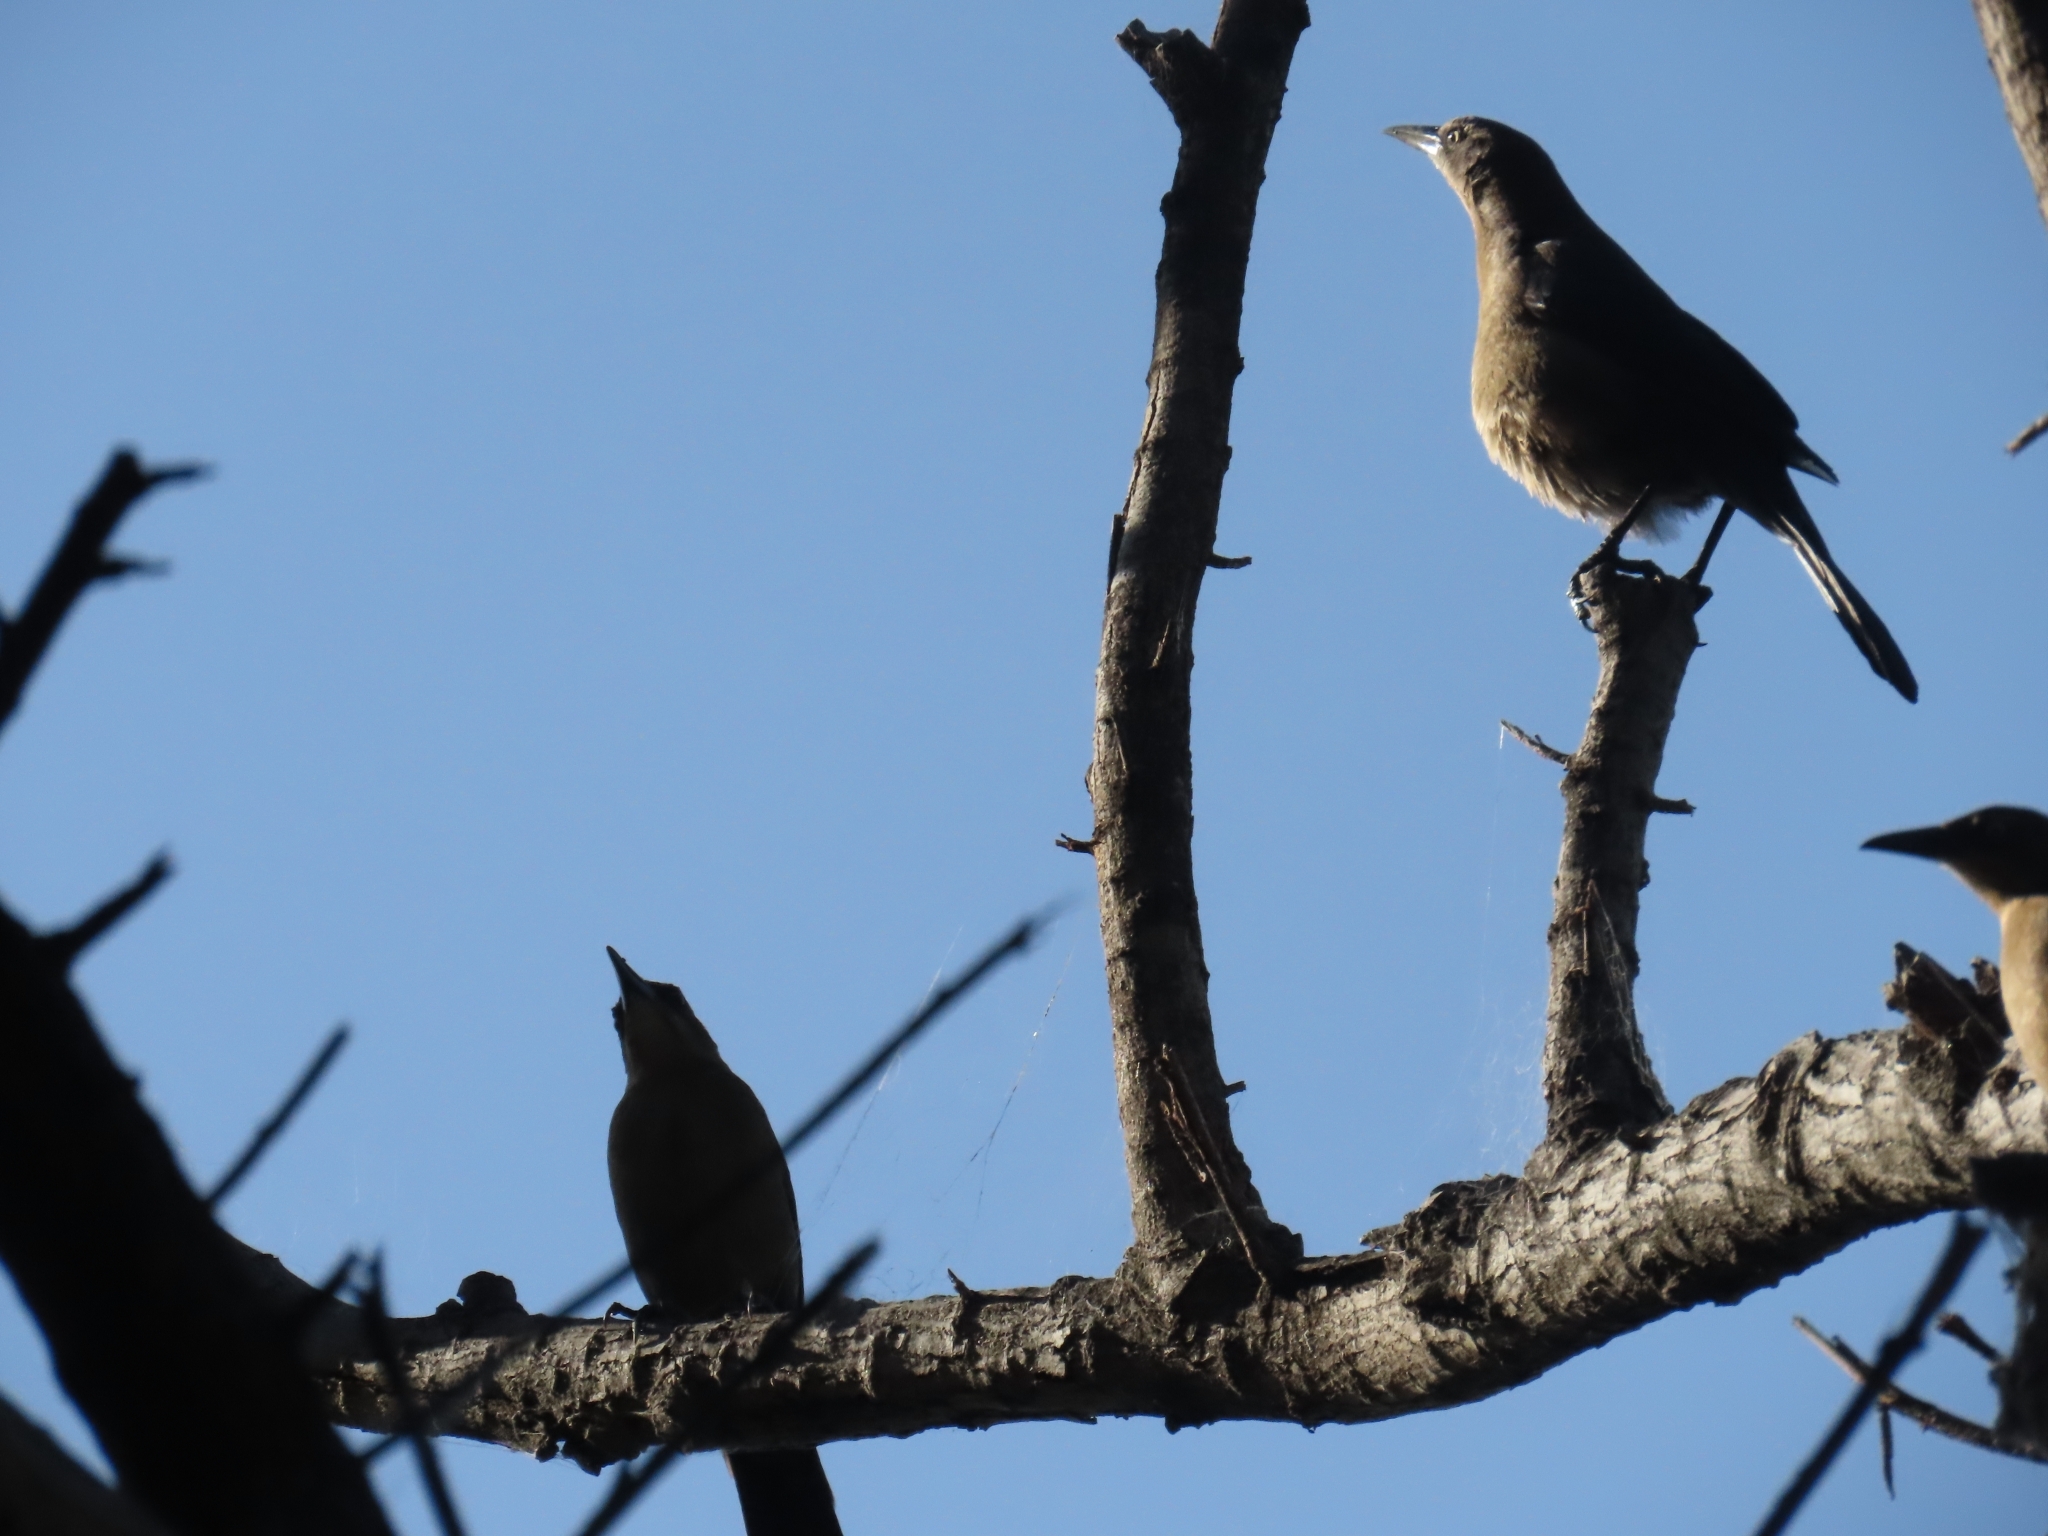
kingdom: Animalia
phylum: Chordata
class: Aves
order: Passeriformes
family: Icteridae
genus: Quiscalus
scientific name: Quiscalus mexicanus
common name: Great-tailed grackle
